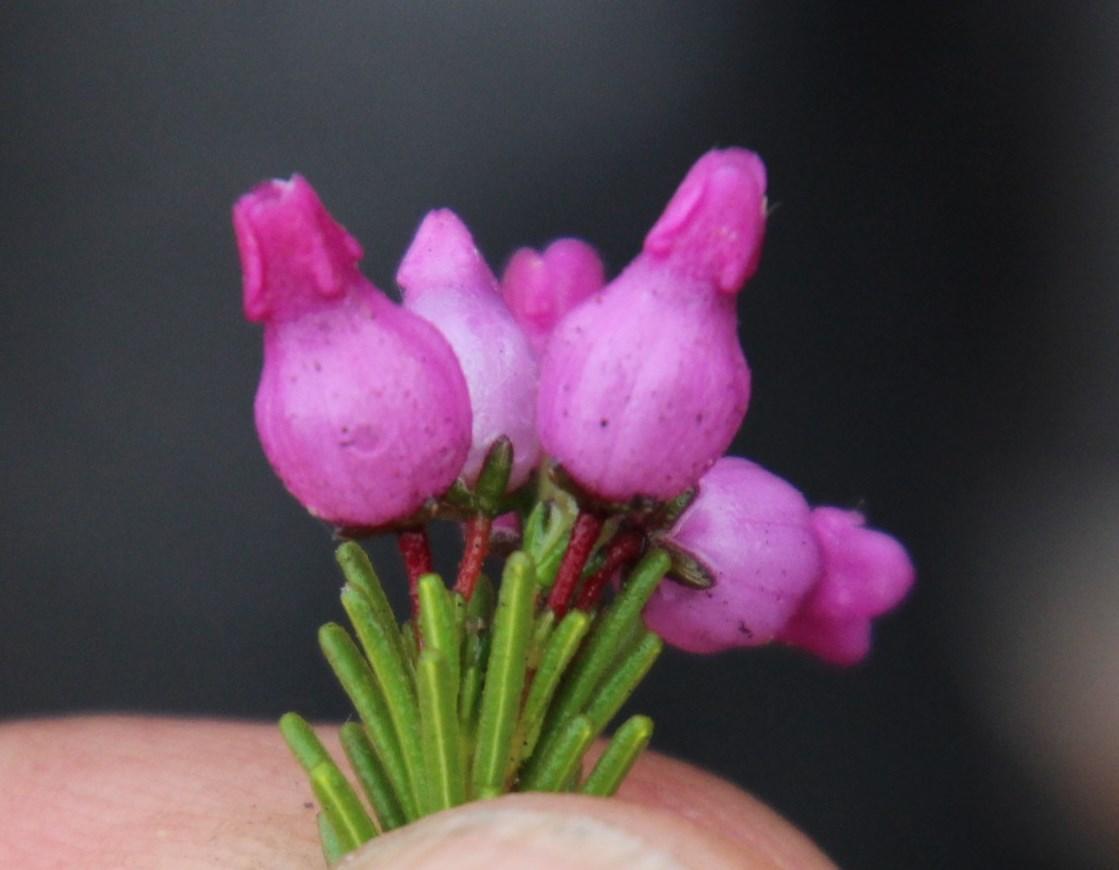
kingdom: Plantae
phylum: Tracheophyta
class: Magnoliopsida
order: Ericales
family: Ericaceae
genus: Erica
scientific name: Erica obliqua
